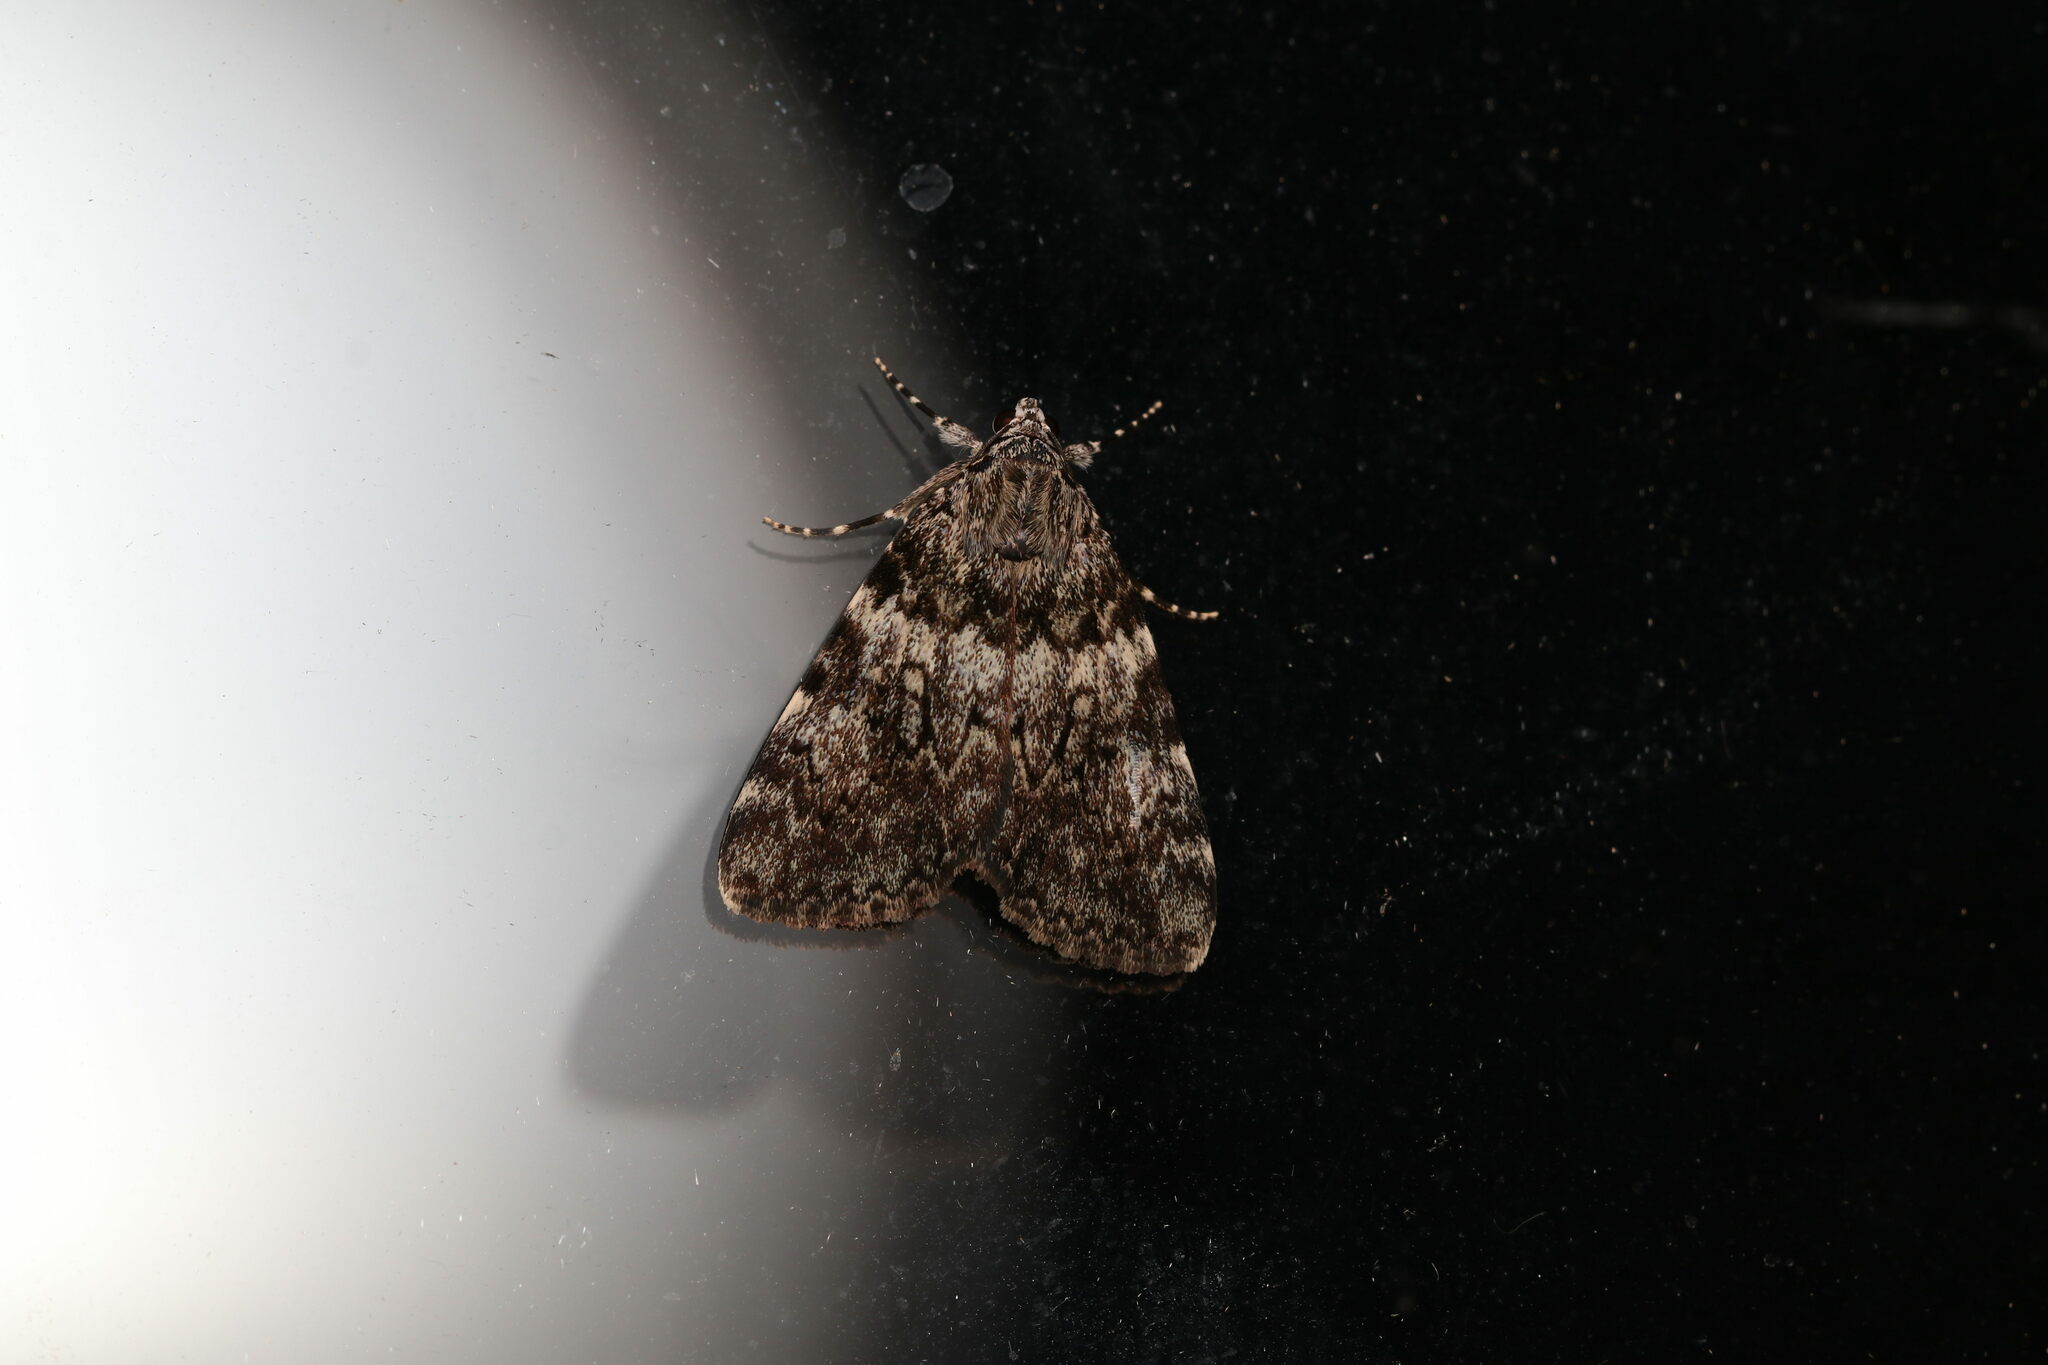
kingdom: Animalia
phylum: Arthropoda
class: Insecta
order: Lepidoptera
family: Erebidae
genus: Catocala
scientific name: Catocala lineella
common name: Little lined underwing
